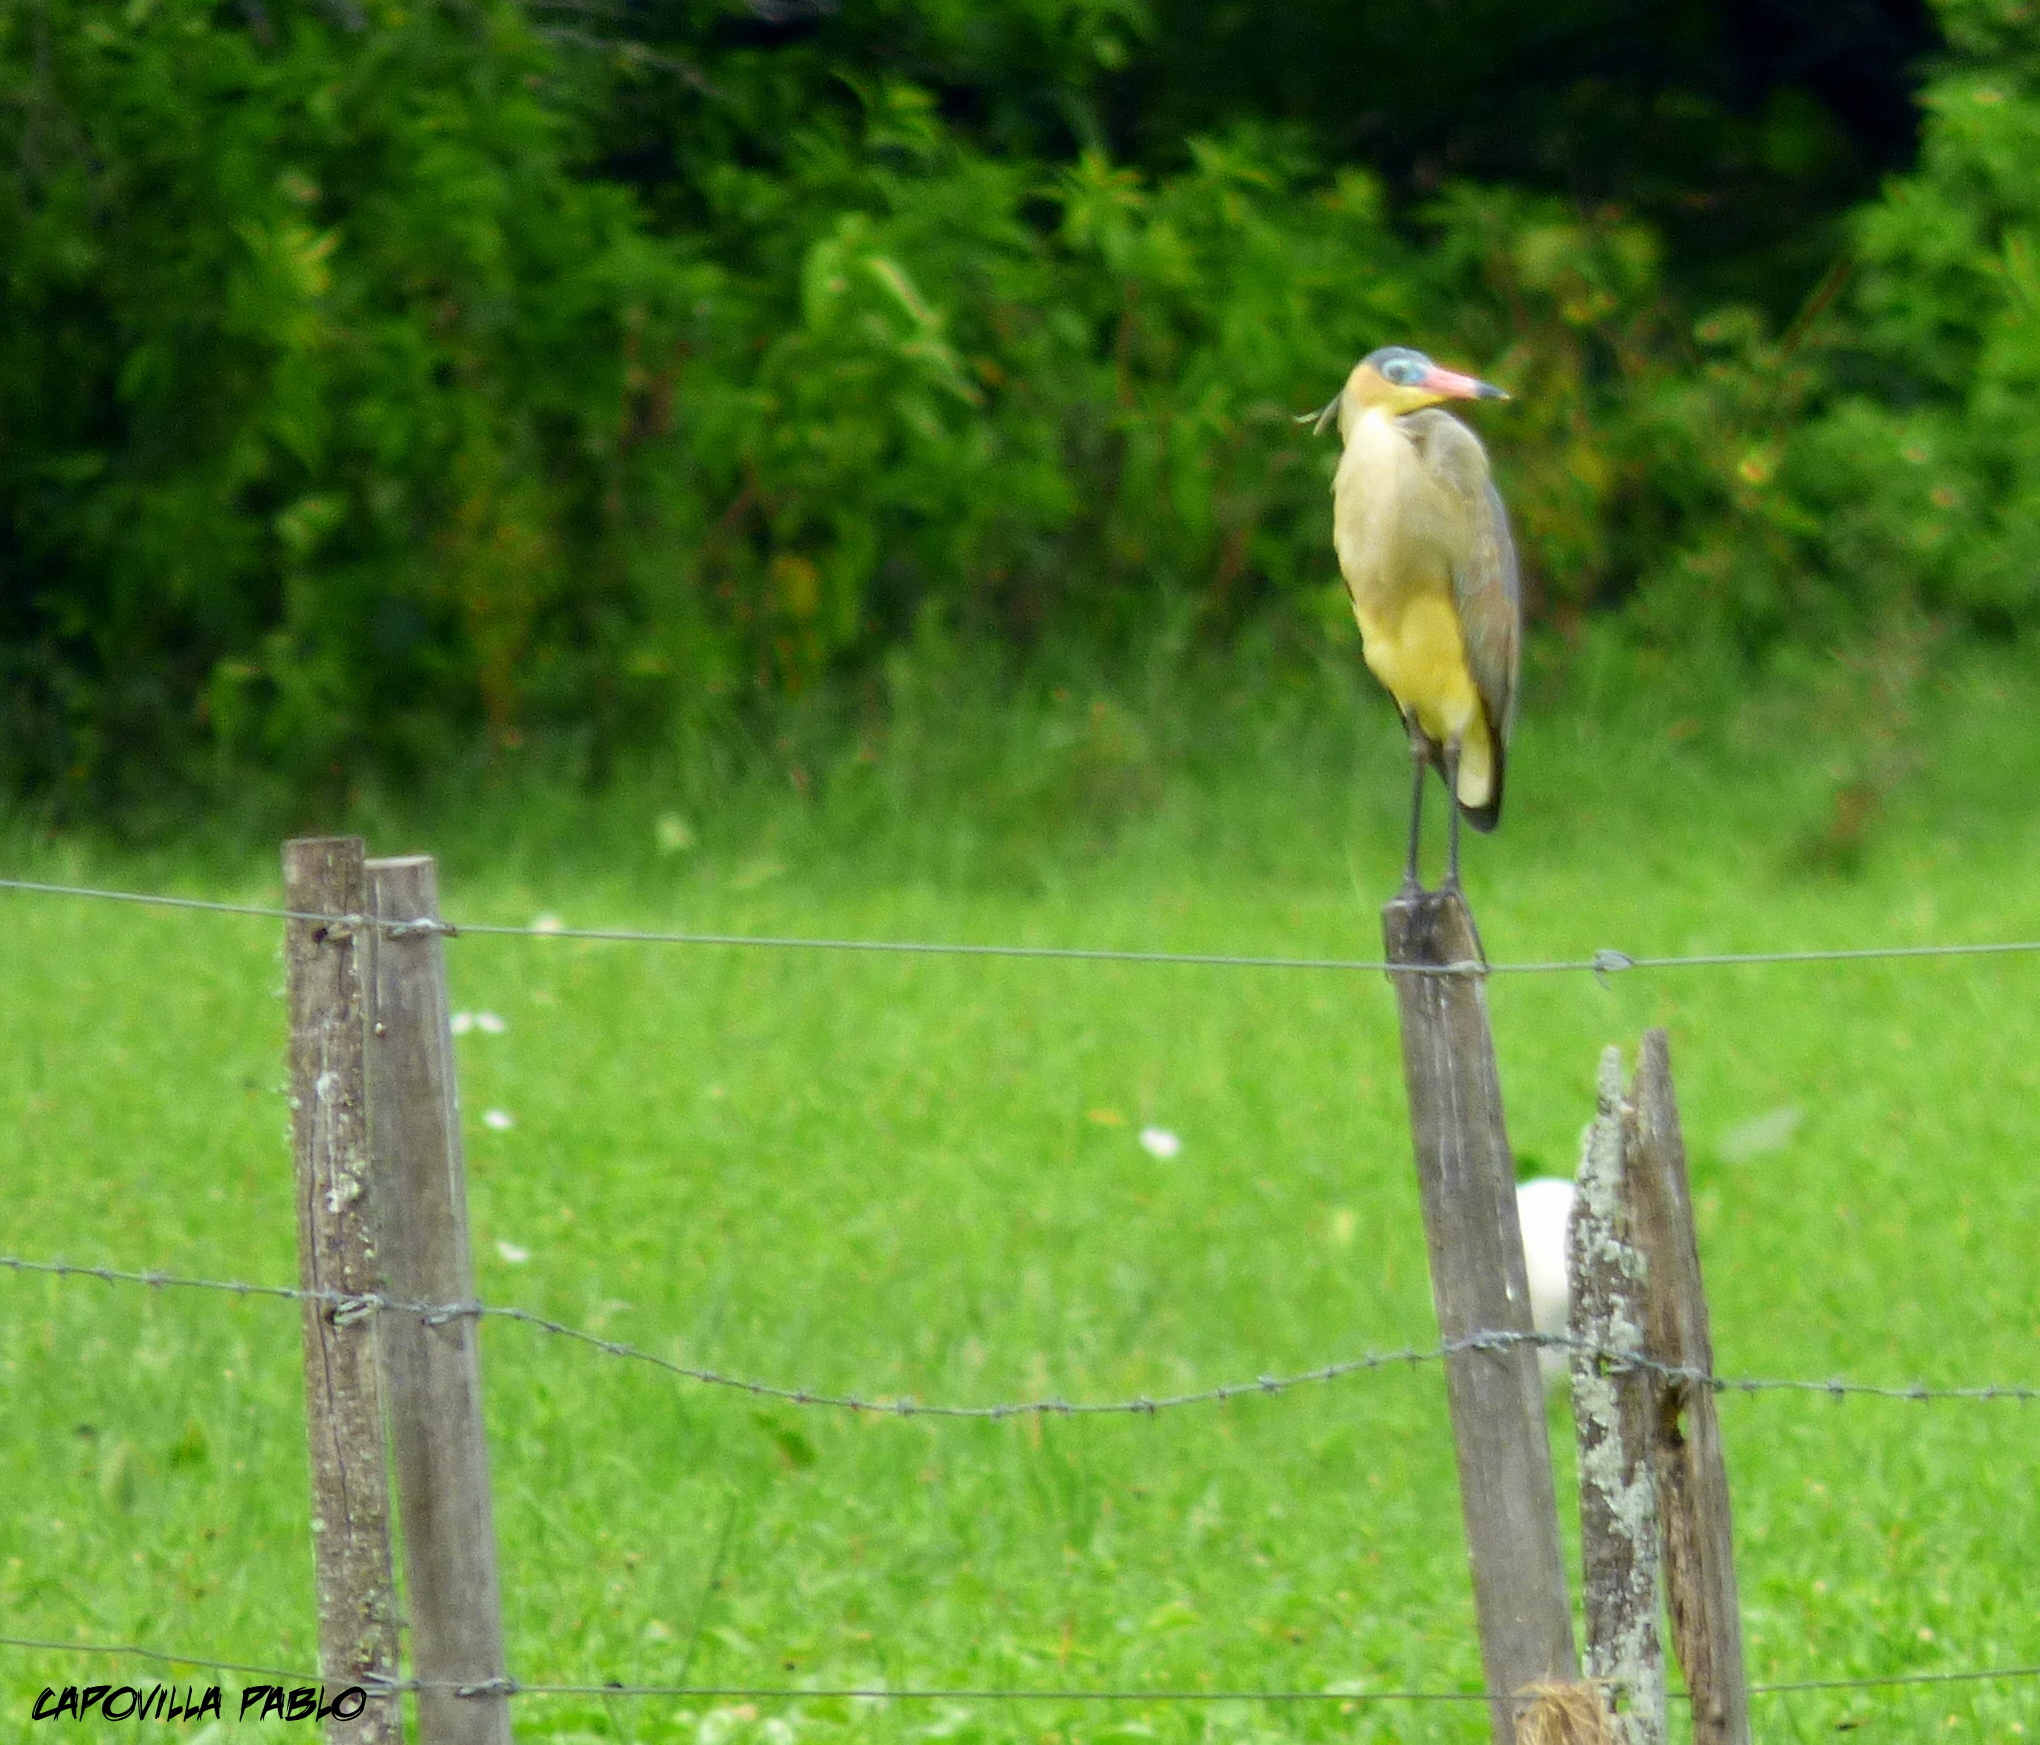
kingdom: Animalia
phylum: Chordata
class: Aves
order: Pelecaniformes
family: Ardeidae
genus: Syrigma
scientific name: Syrigma sibilatrix
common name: Whistling heron
